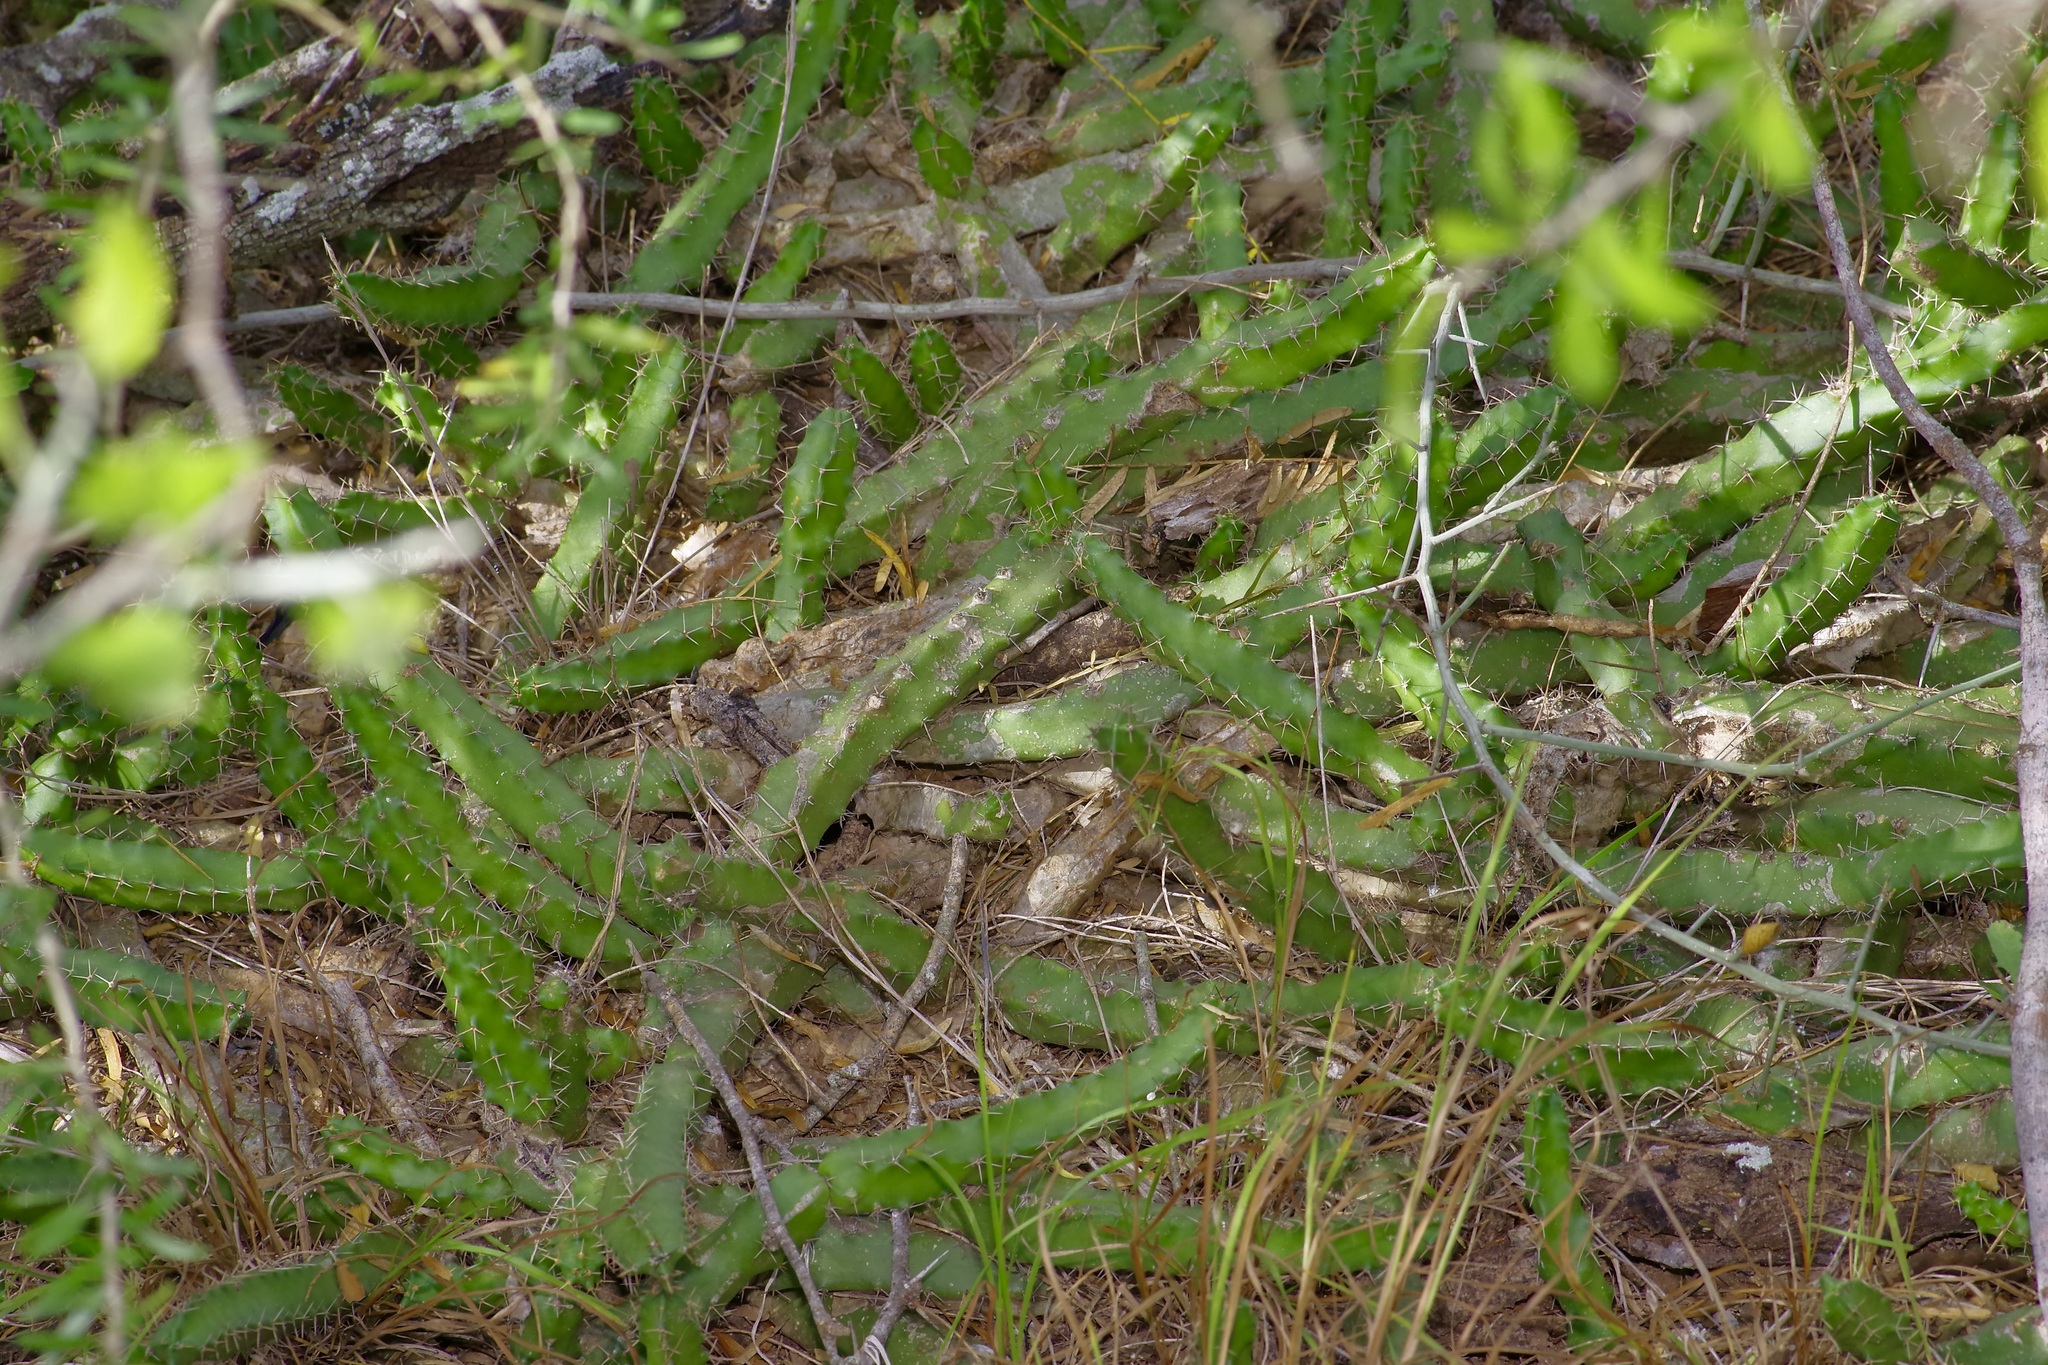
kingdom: Plantae
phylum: Tracheophyta
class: Magnoliopsida
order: Caryophyllales
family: Cactaceae
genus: Echinocereus
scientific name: Echinocereus pentalophus
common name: Ladyfinger cactus
